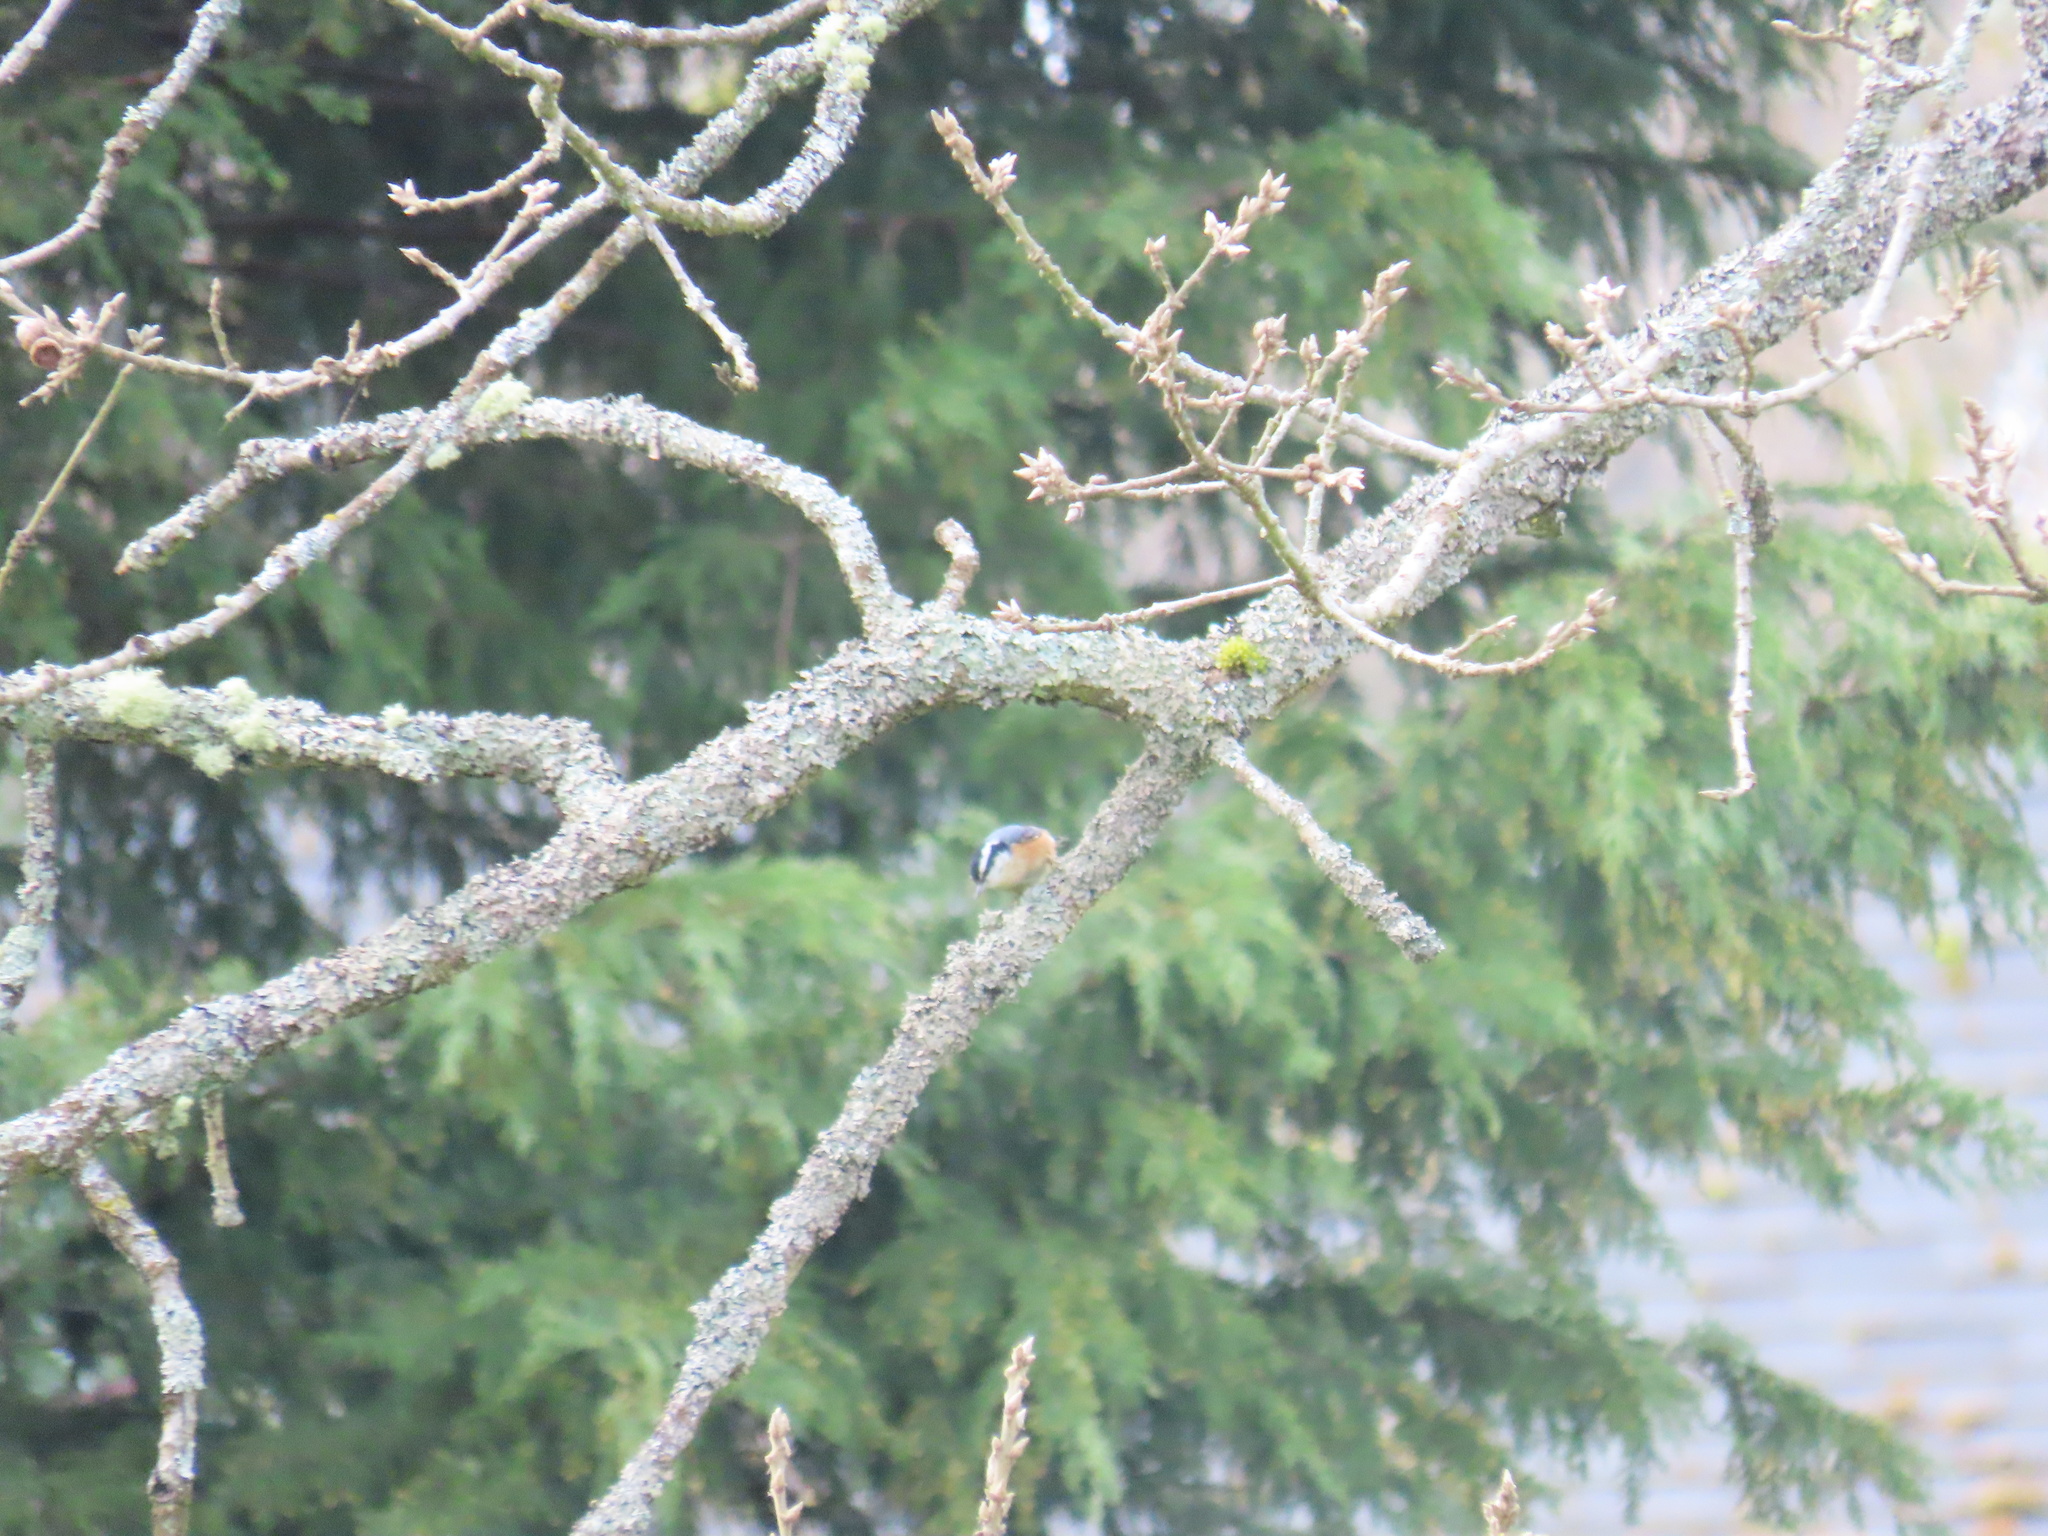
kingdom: Animalia
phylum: Chordata
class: Aves
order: Passeriformes
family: Sittidae
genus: Sitta
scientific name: Sitta canadensis
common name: Red-breasted nuthatch
